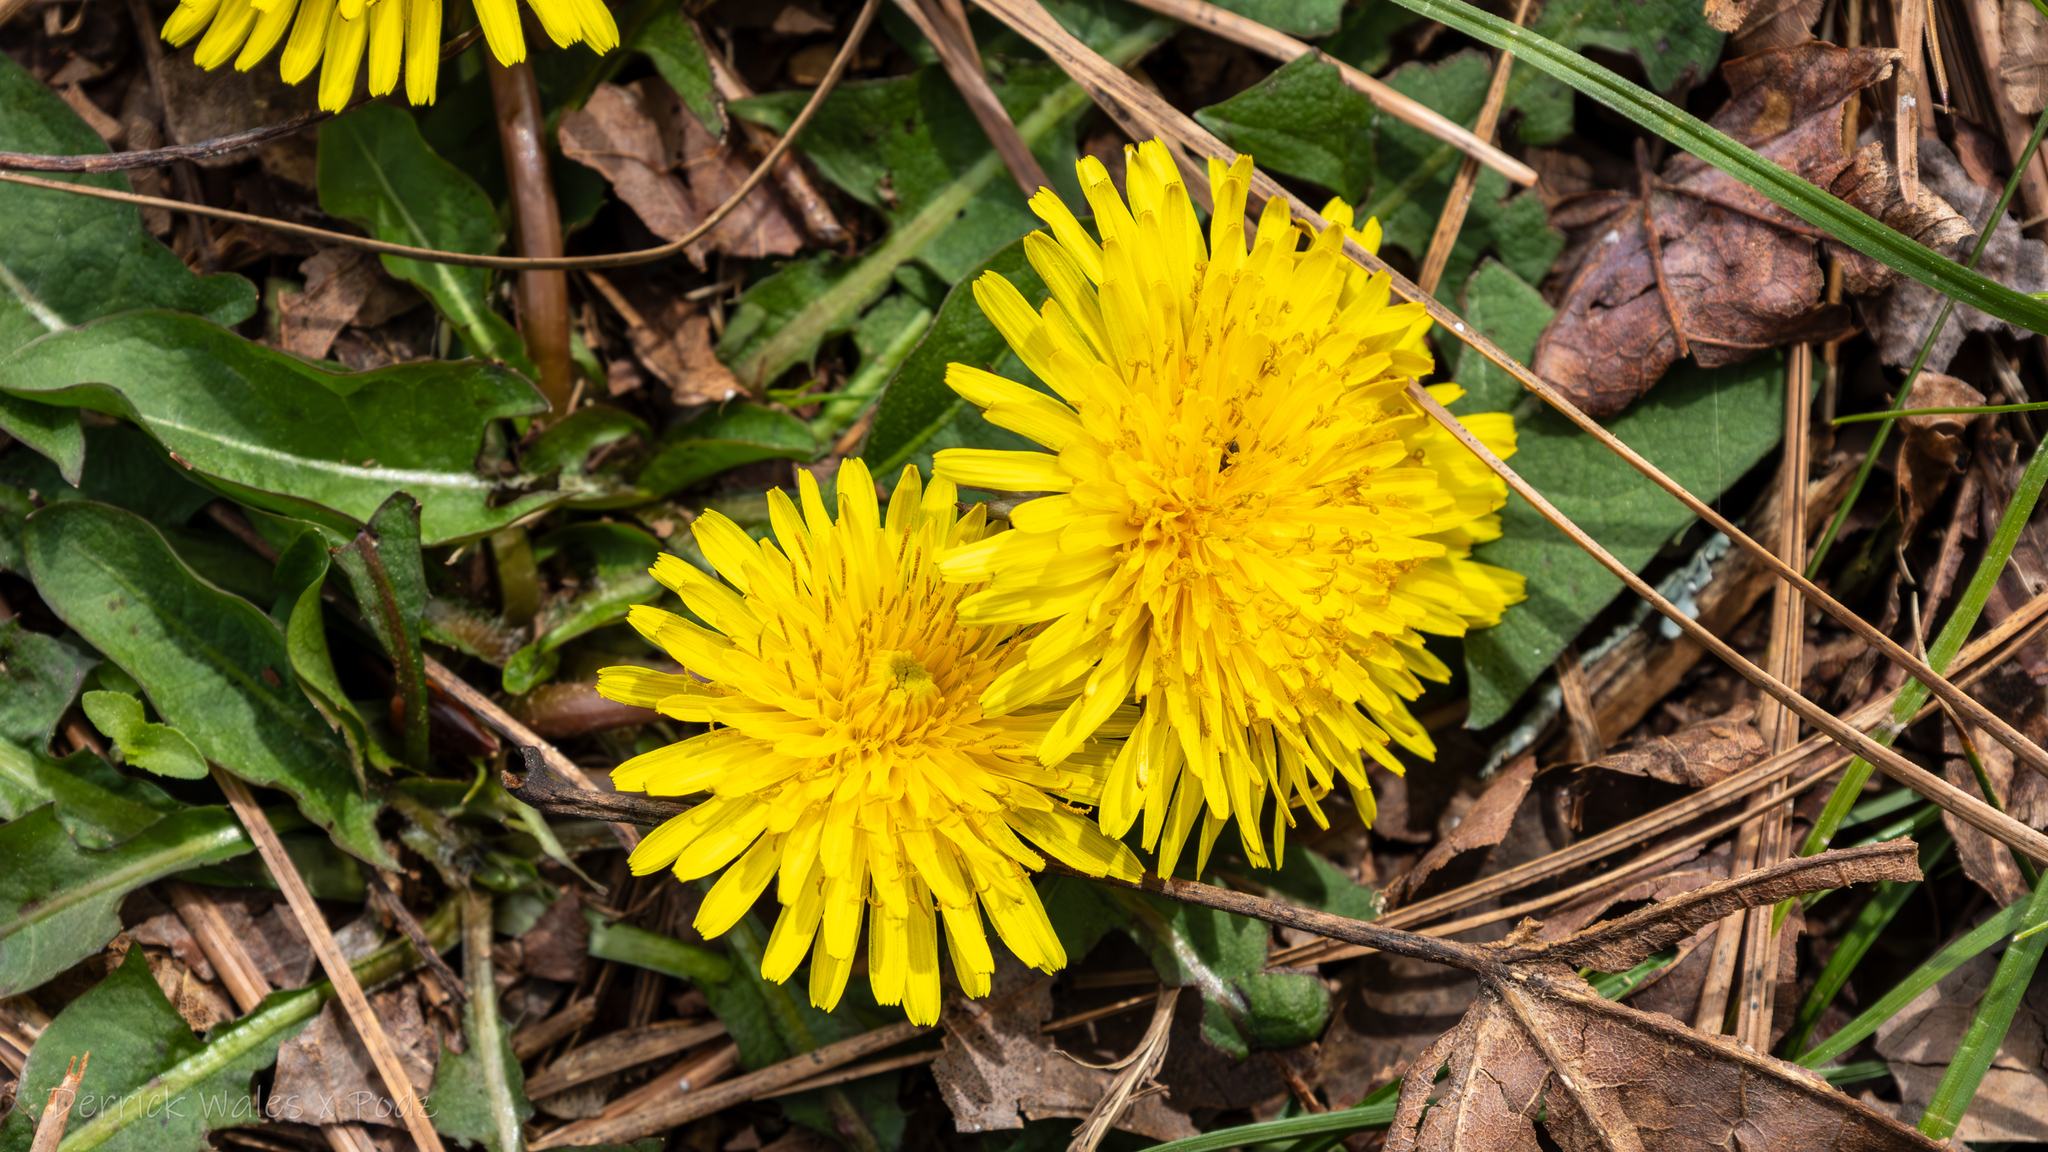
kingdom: Plantae
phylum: Tracheophyta
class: Magnoliopsida
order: Asterales
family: Asteraceae
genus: Taraxacum
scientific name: Taraxacum officinale
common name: Common dandelion
